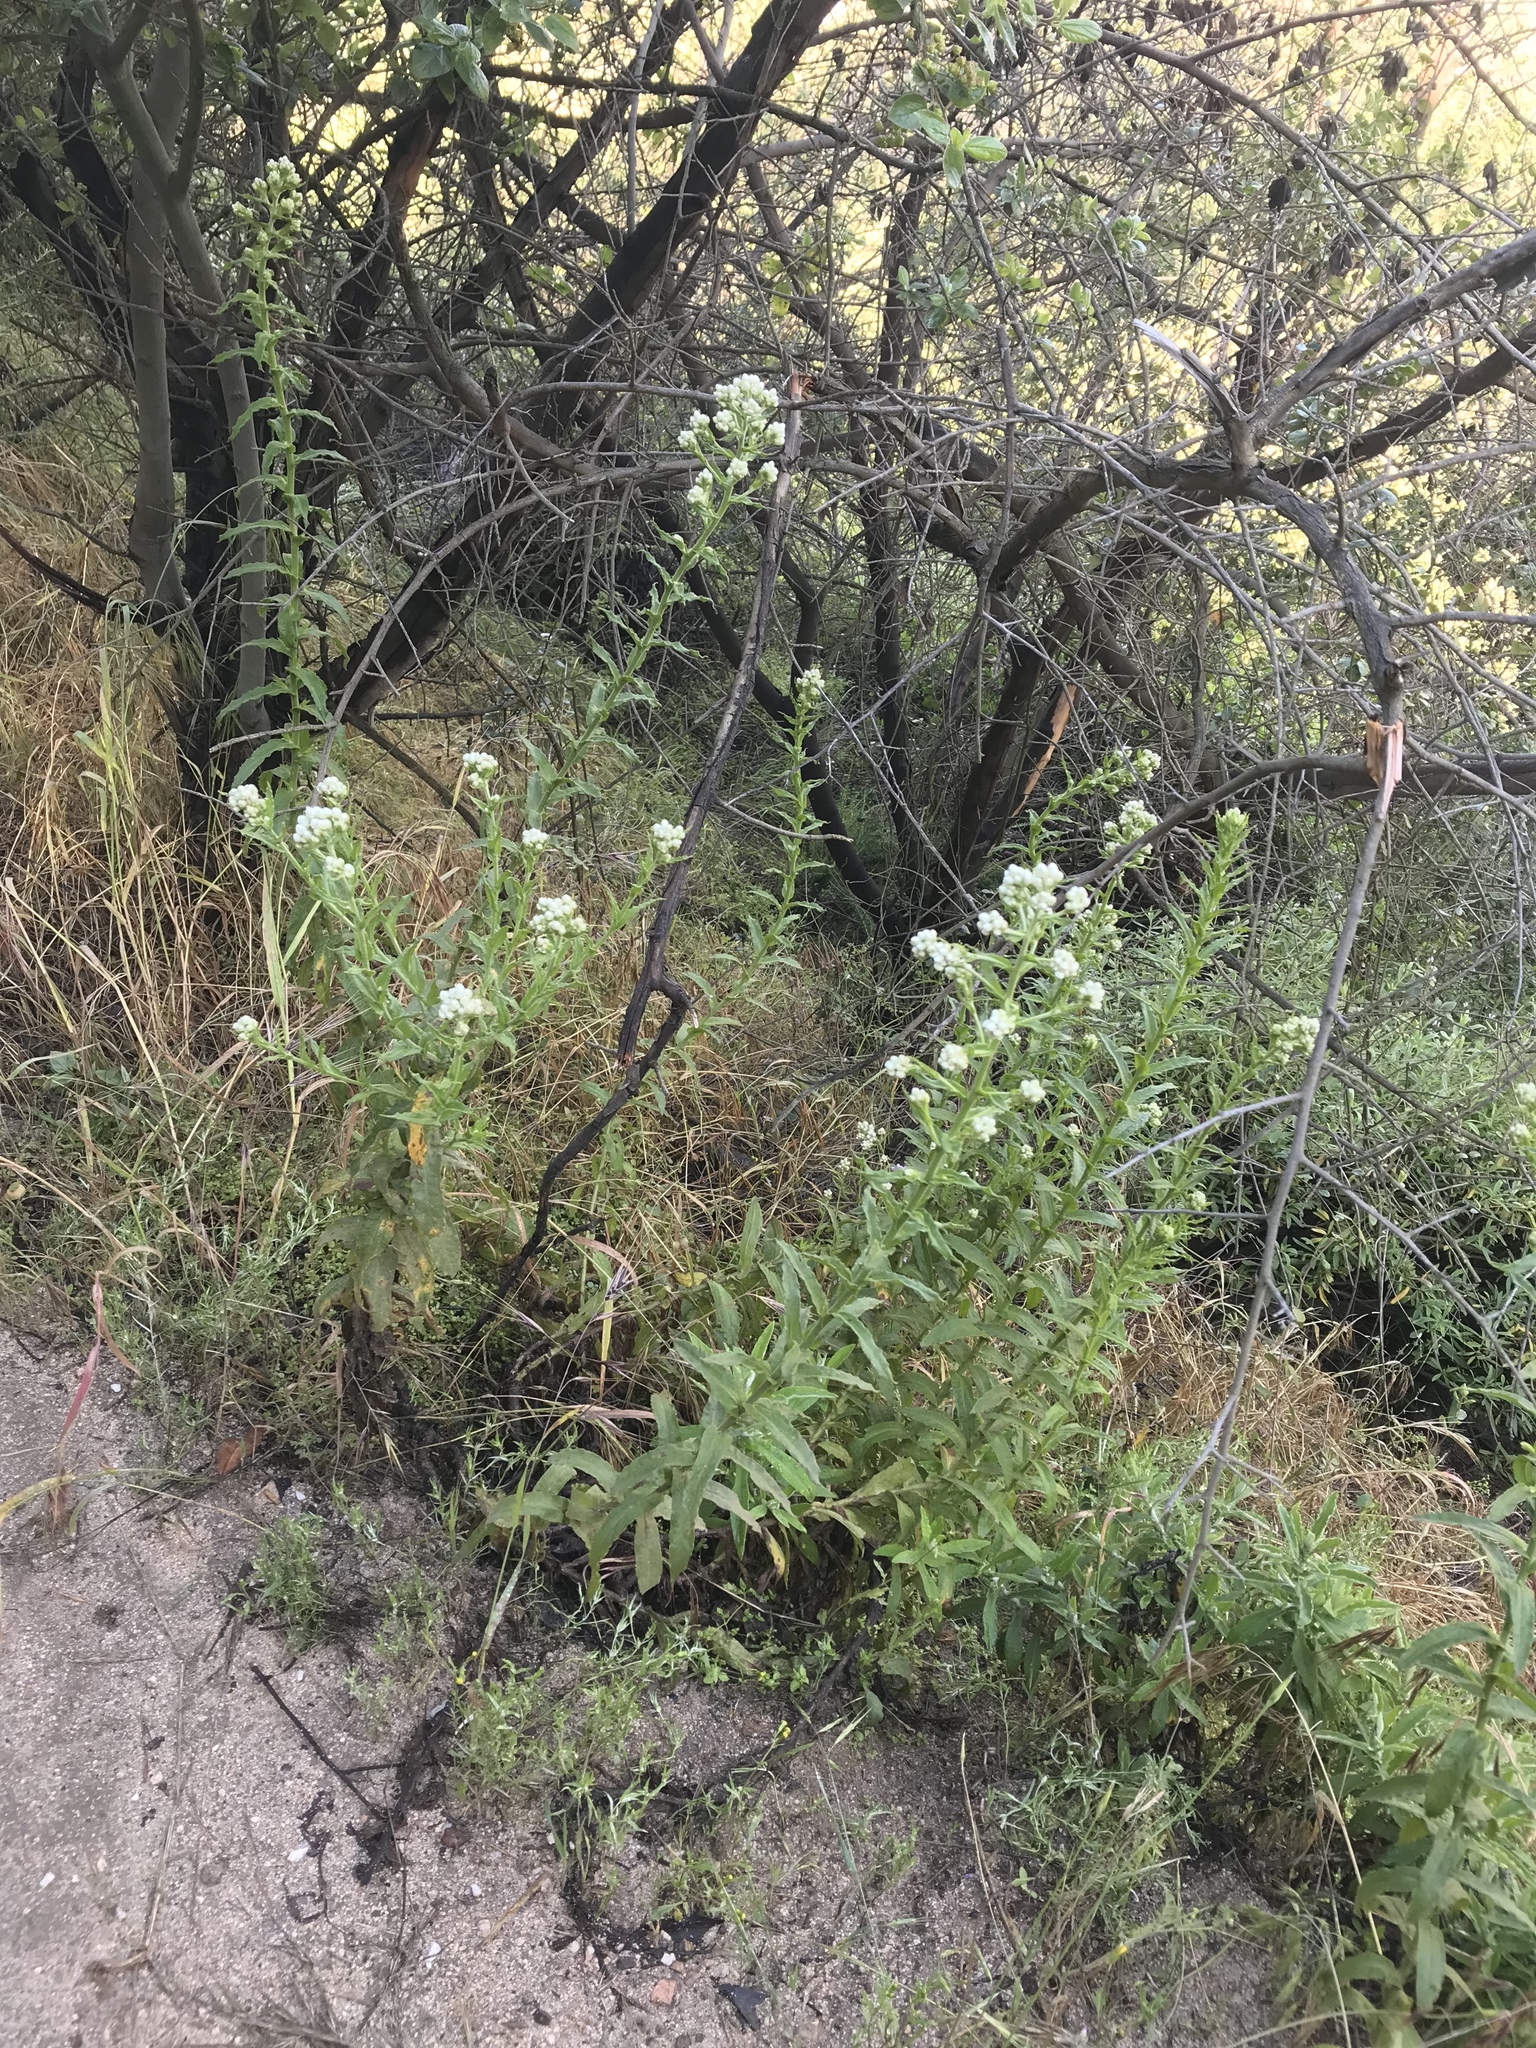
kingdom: Plantae
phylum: Tracheophyta
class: Magnoliopsida
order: Asterales
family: Asteraceae
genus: Pseudognaphalium
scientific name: Pseudognaphalium californicum
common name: California rabbit-tobacco
